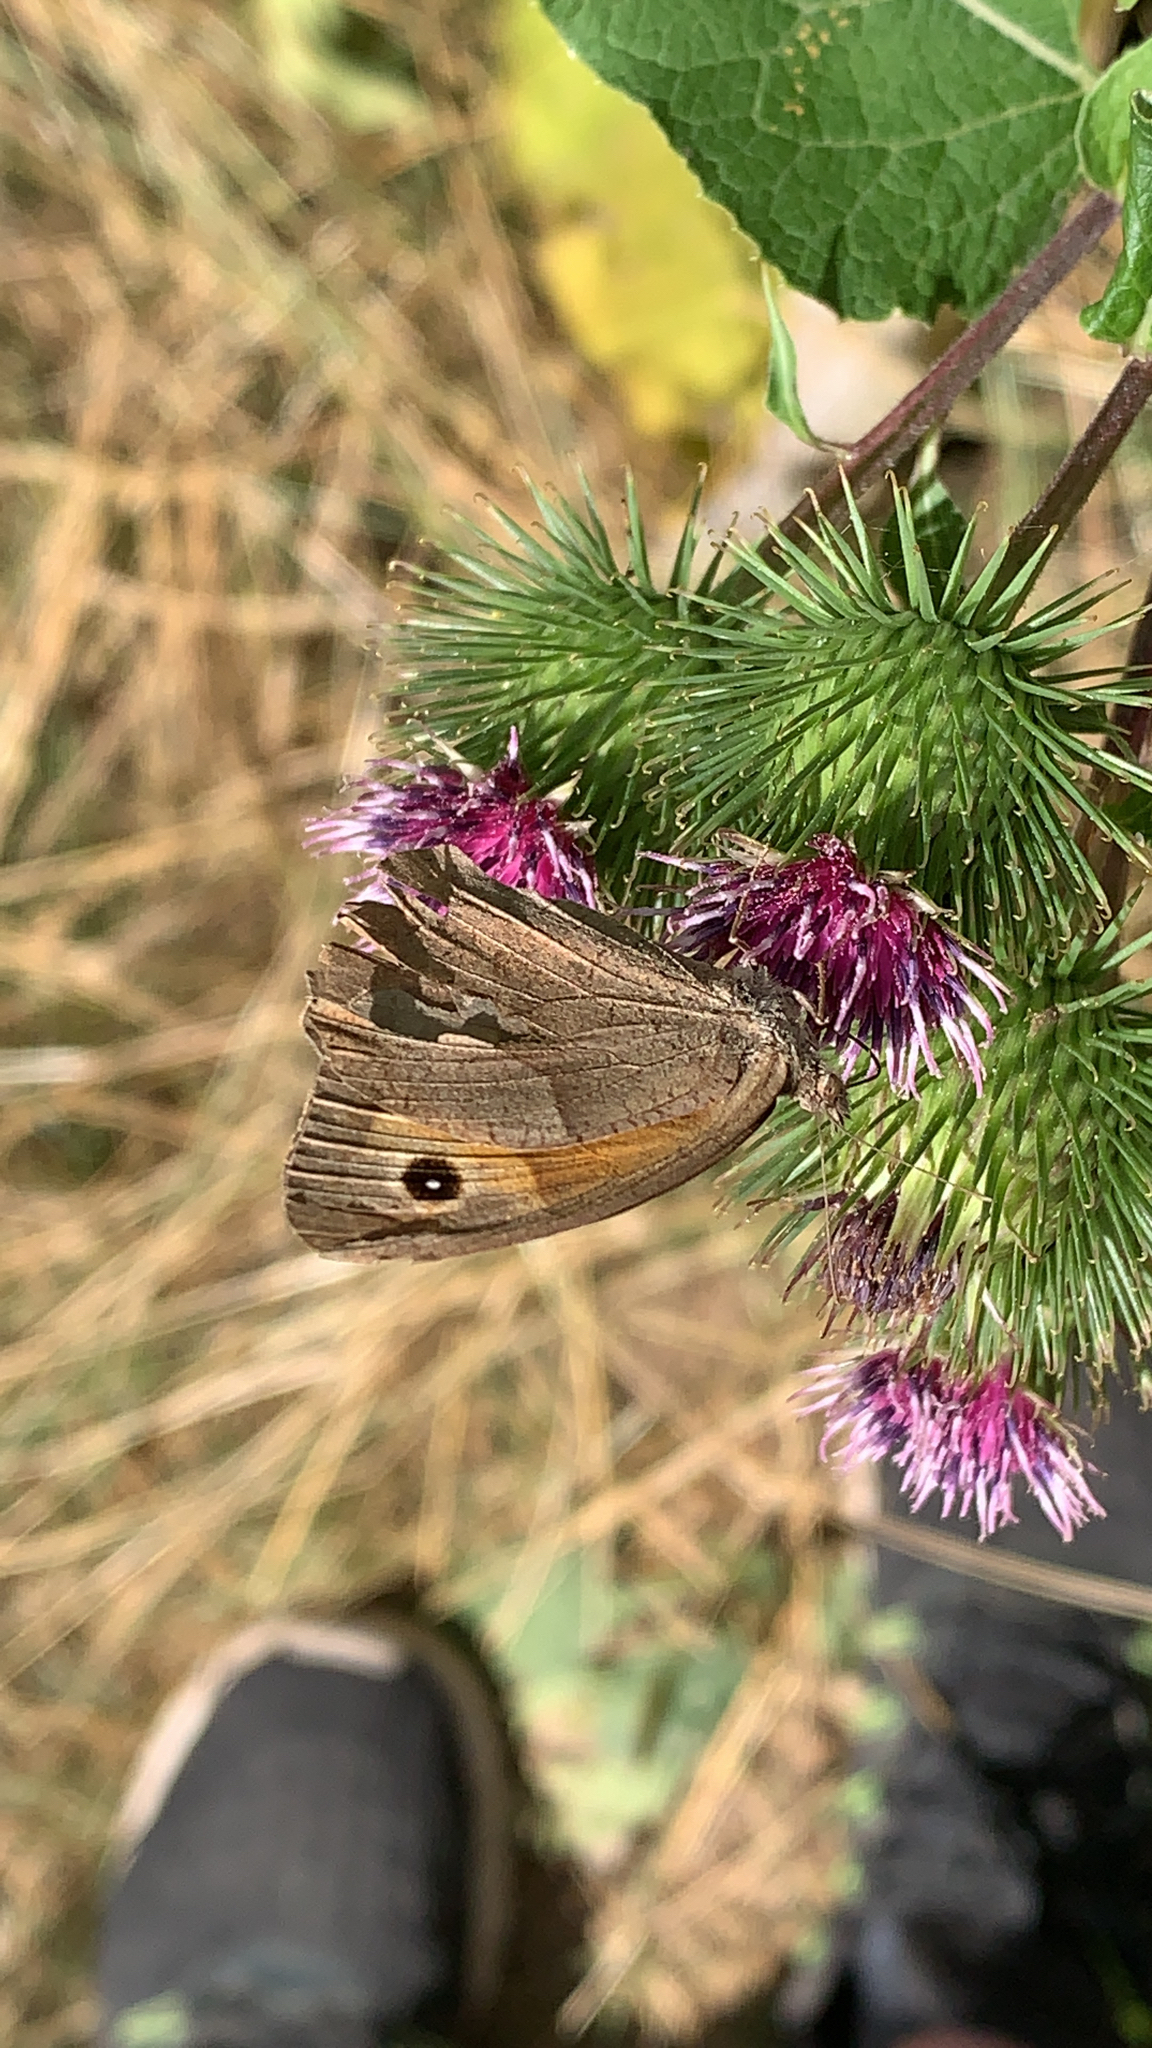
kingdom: Animalia
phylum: Arthropoda
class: Insecta
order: Lepidoptera
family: Nymphalidae
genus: Maniola
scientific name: Maniola jurtina
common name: Meadow brown
